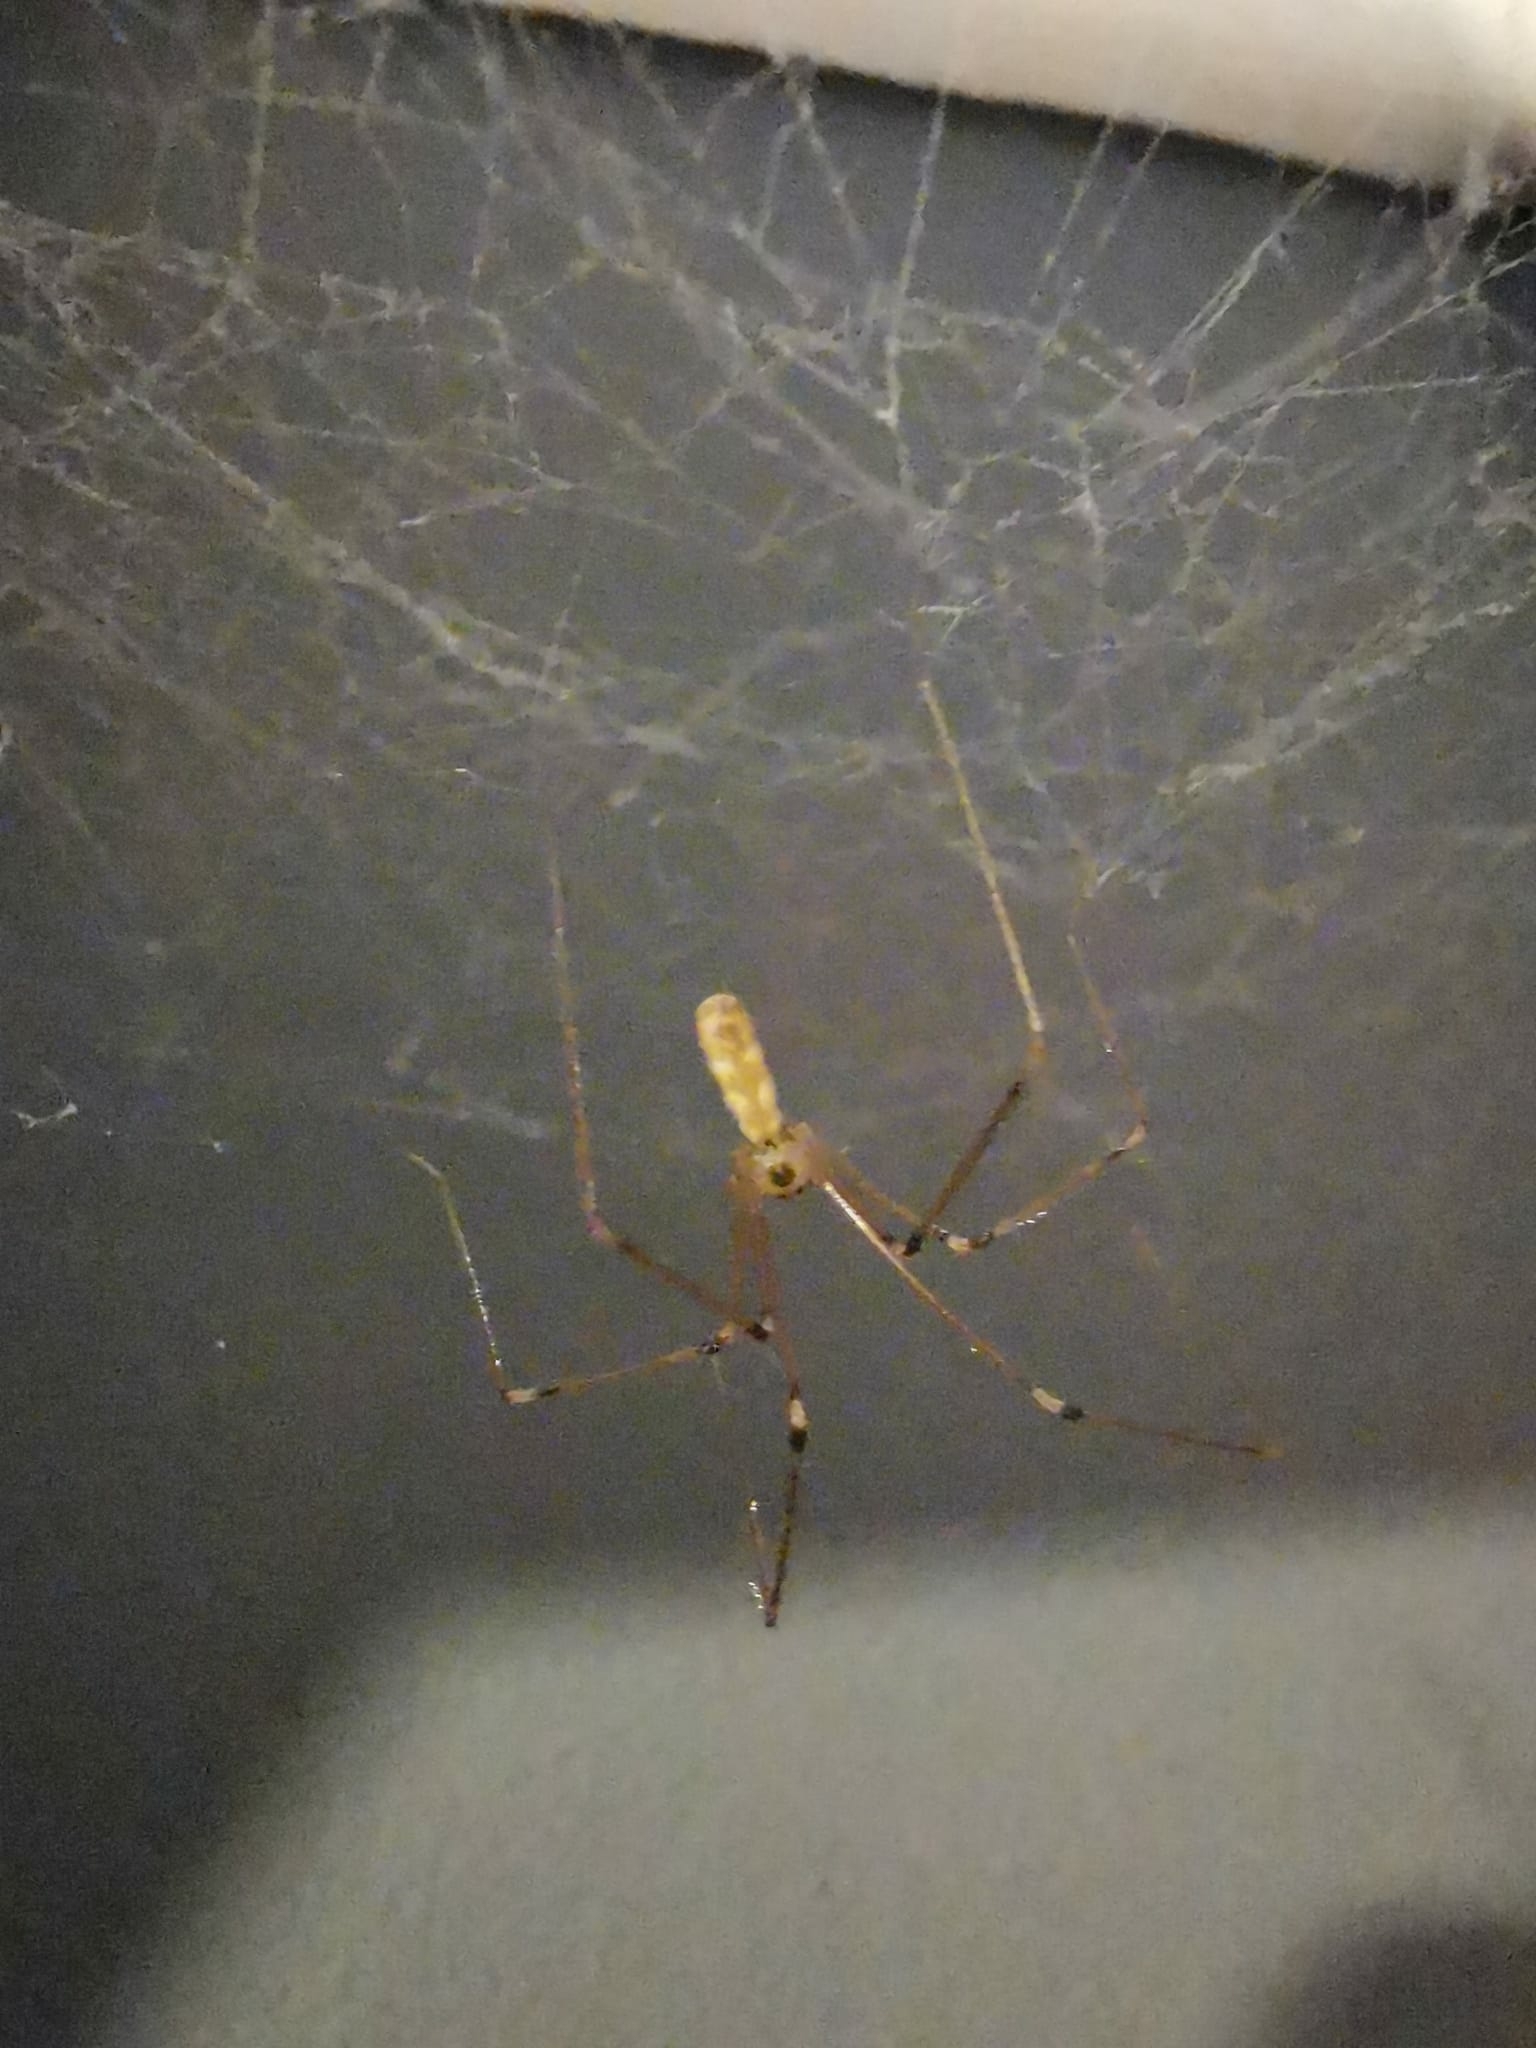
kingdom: Animalia
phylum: Arthropoda
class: Arachnida
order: Araneae
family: Pholcidae
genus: Pholcus
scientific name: Pholcus phalangioides
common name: Longbodied cellar spider
